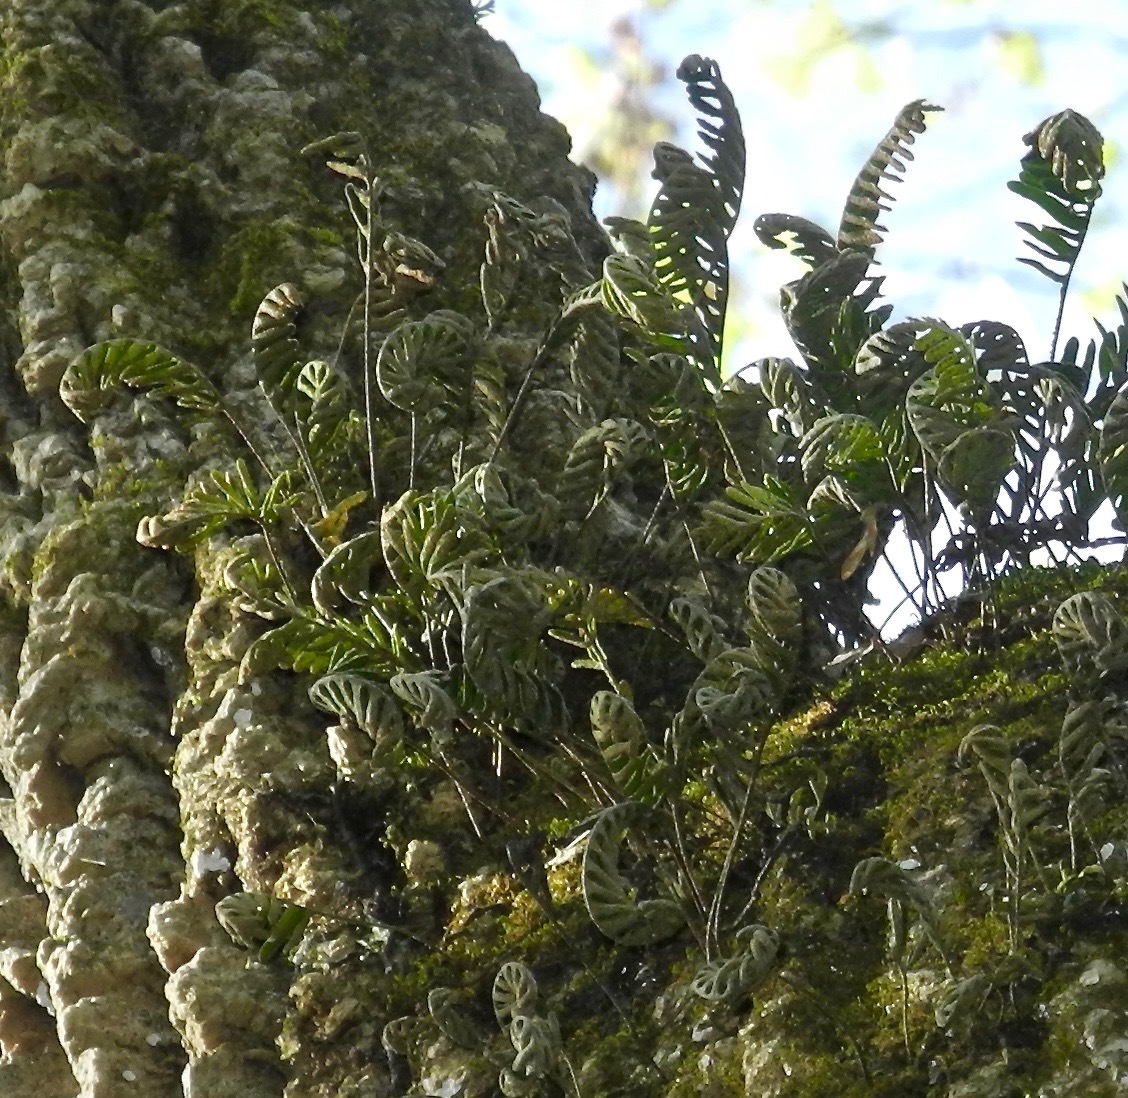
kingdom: Plantae
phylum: Tracheophyta
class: Polypodiopsida
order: Polypodiales
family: Polypodiaceae
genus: Pleopeltis
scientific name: Pleopeltis michauxiana
